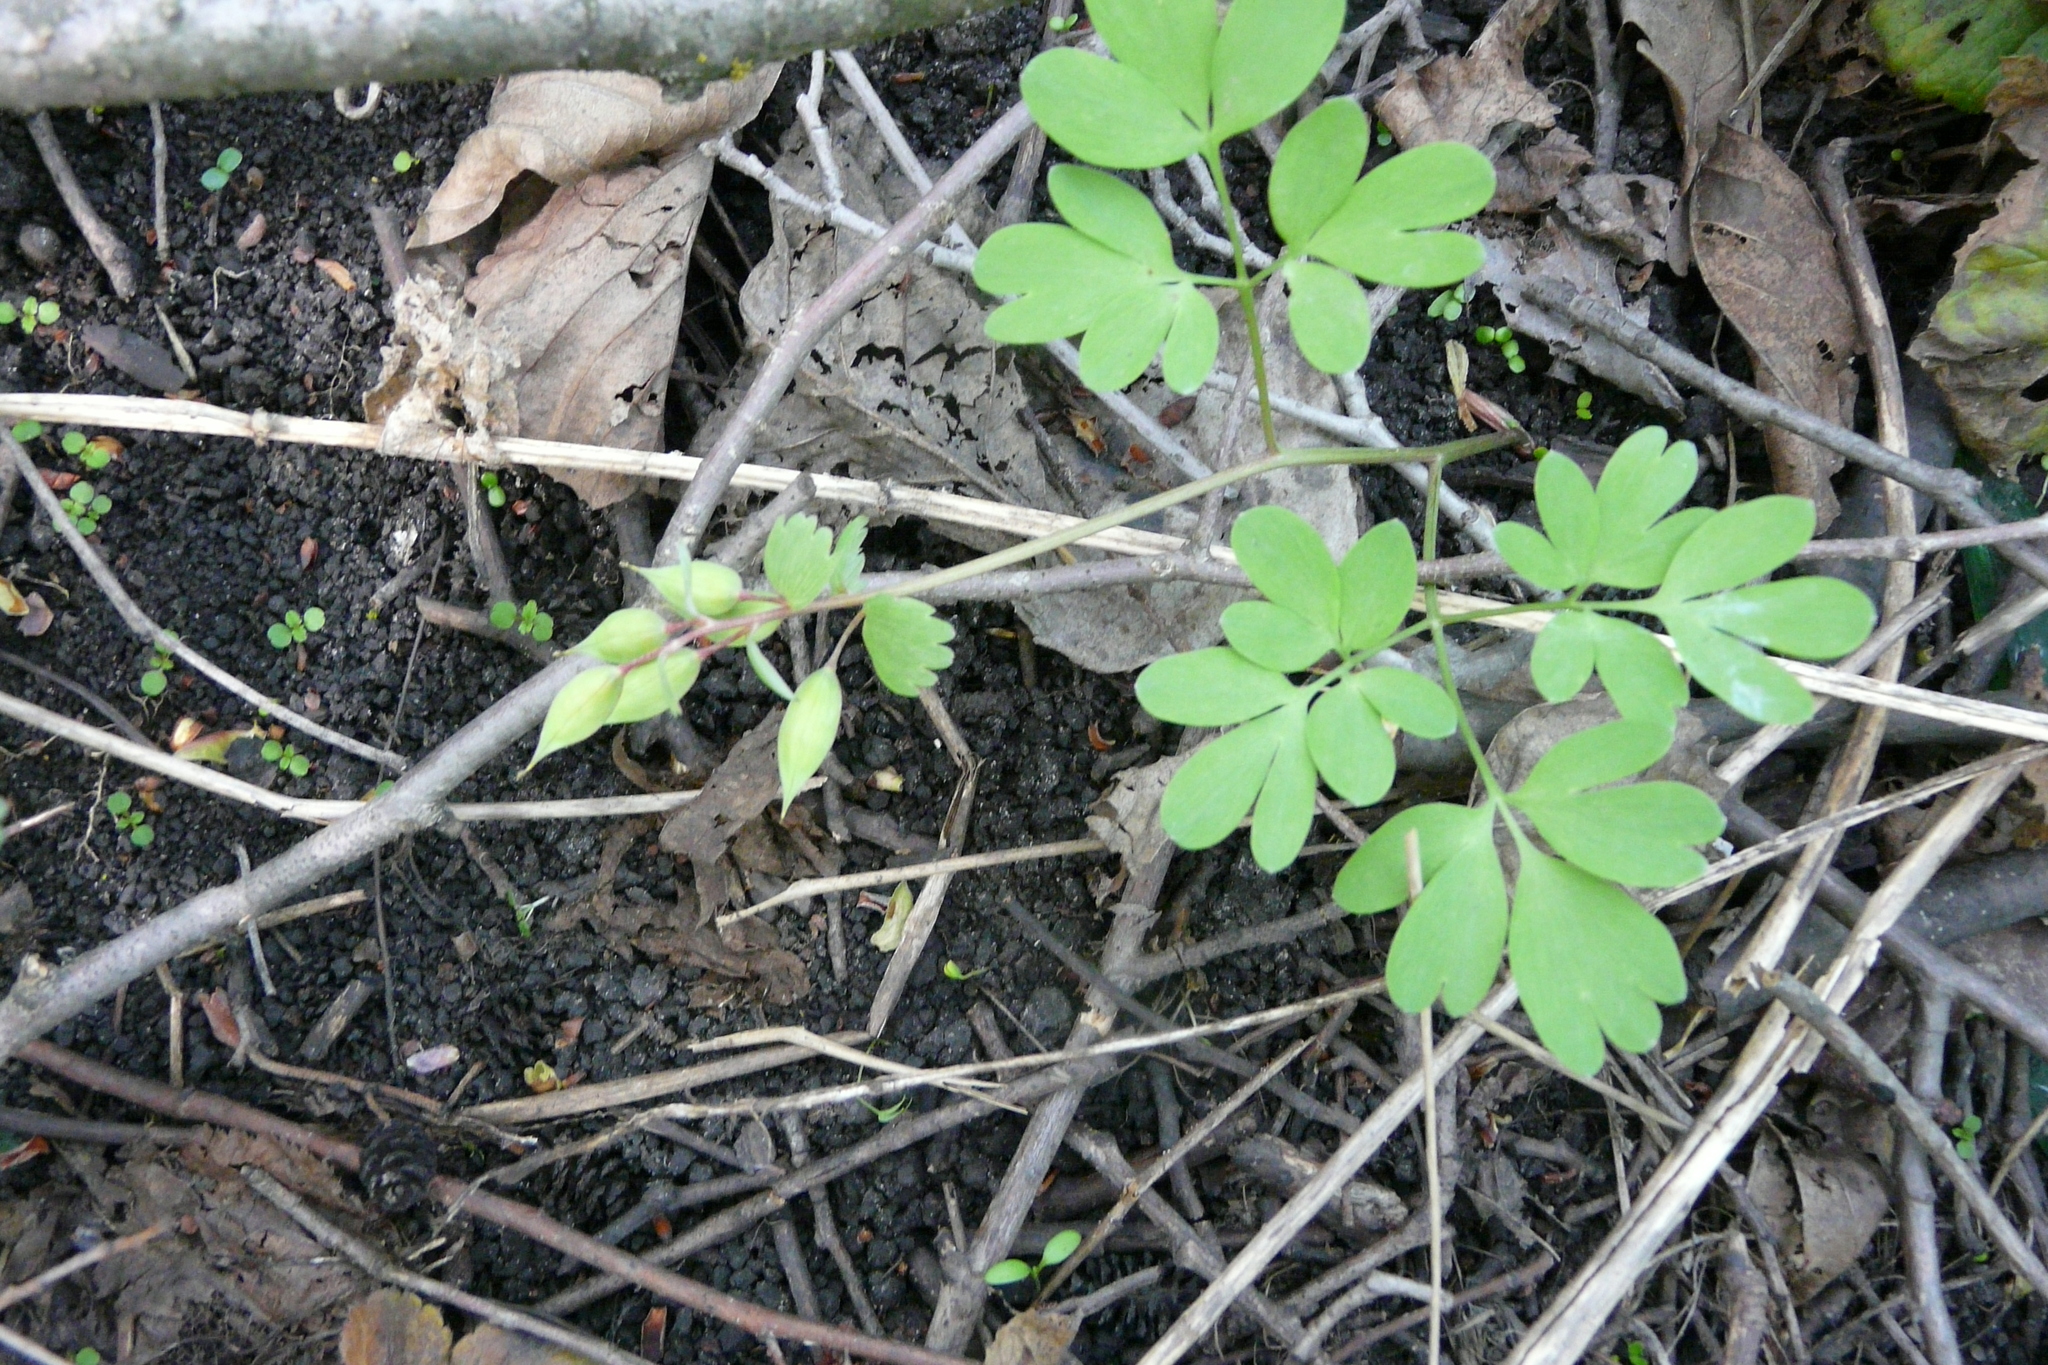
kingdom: Plantae
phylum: Tracheophyta
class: Magnoliopsida
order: Ranunculales
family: Papaveraceae
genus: Corydalis
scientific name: Corydalis solida
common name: Bird-in-a-bush
